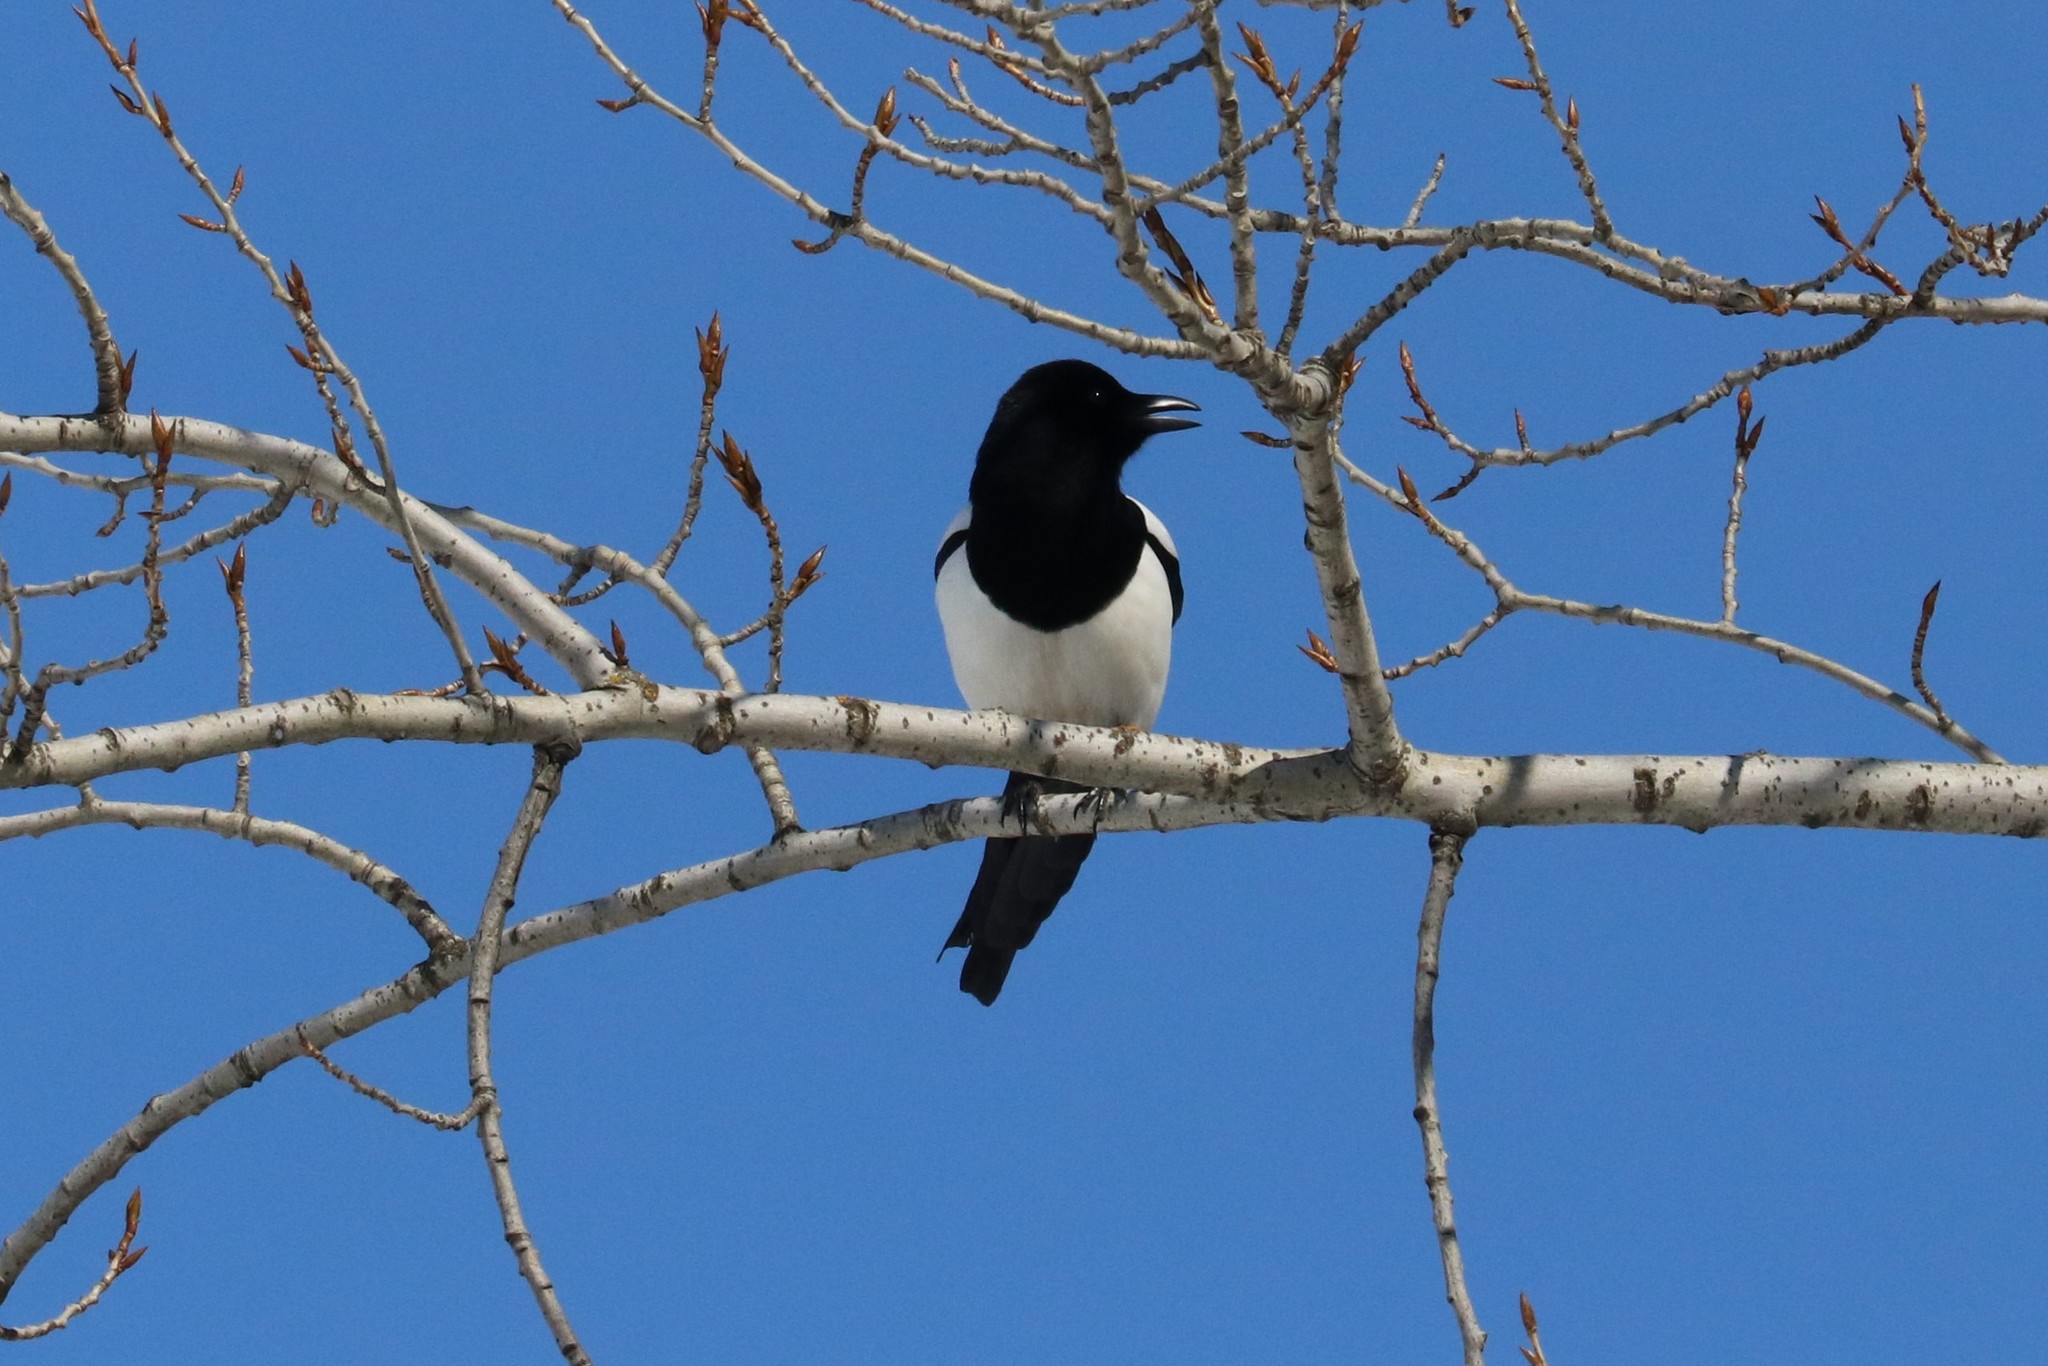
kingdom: Animalia
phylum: Chordata
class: Aves
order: Passeriformes
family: Corvidae
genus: Pica
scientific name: Pica pica
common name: Eurasian magpie
